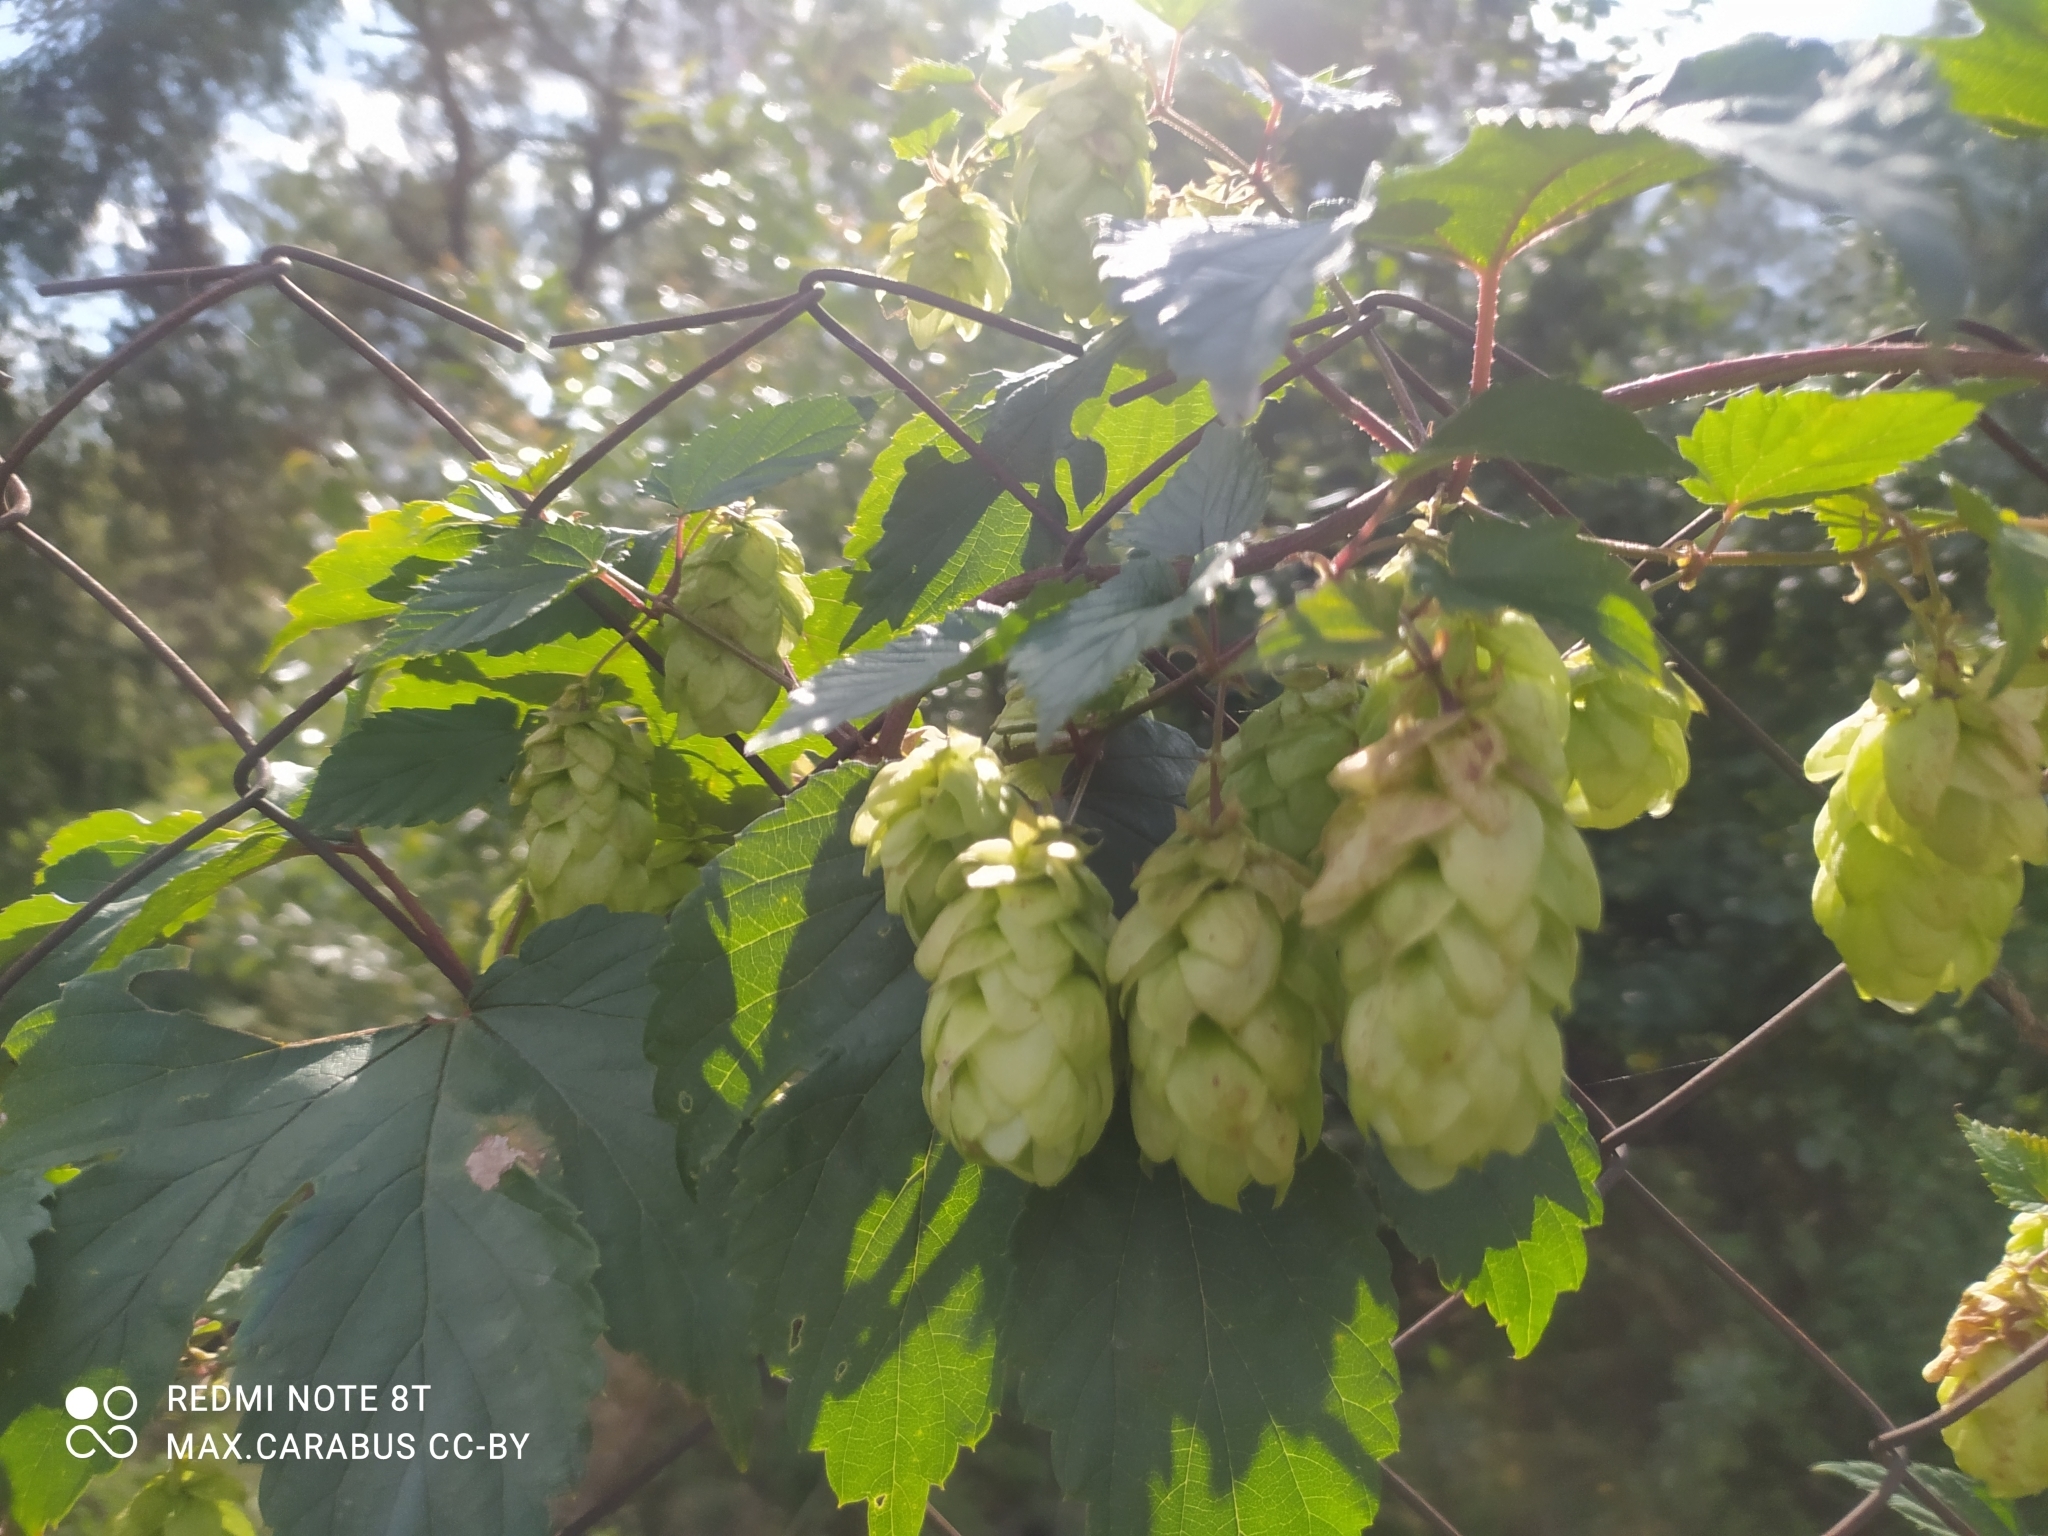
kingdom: Plantae
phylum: Tracheophyta
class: Magnoliopsida
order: Rosales
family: Cannabaceae
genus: Humulus
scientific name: Humulus lupulus
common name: Hop
